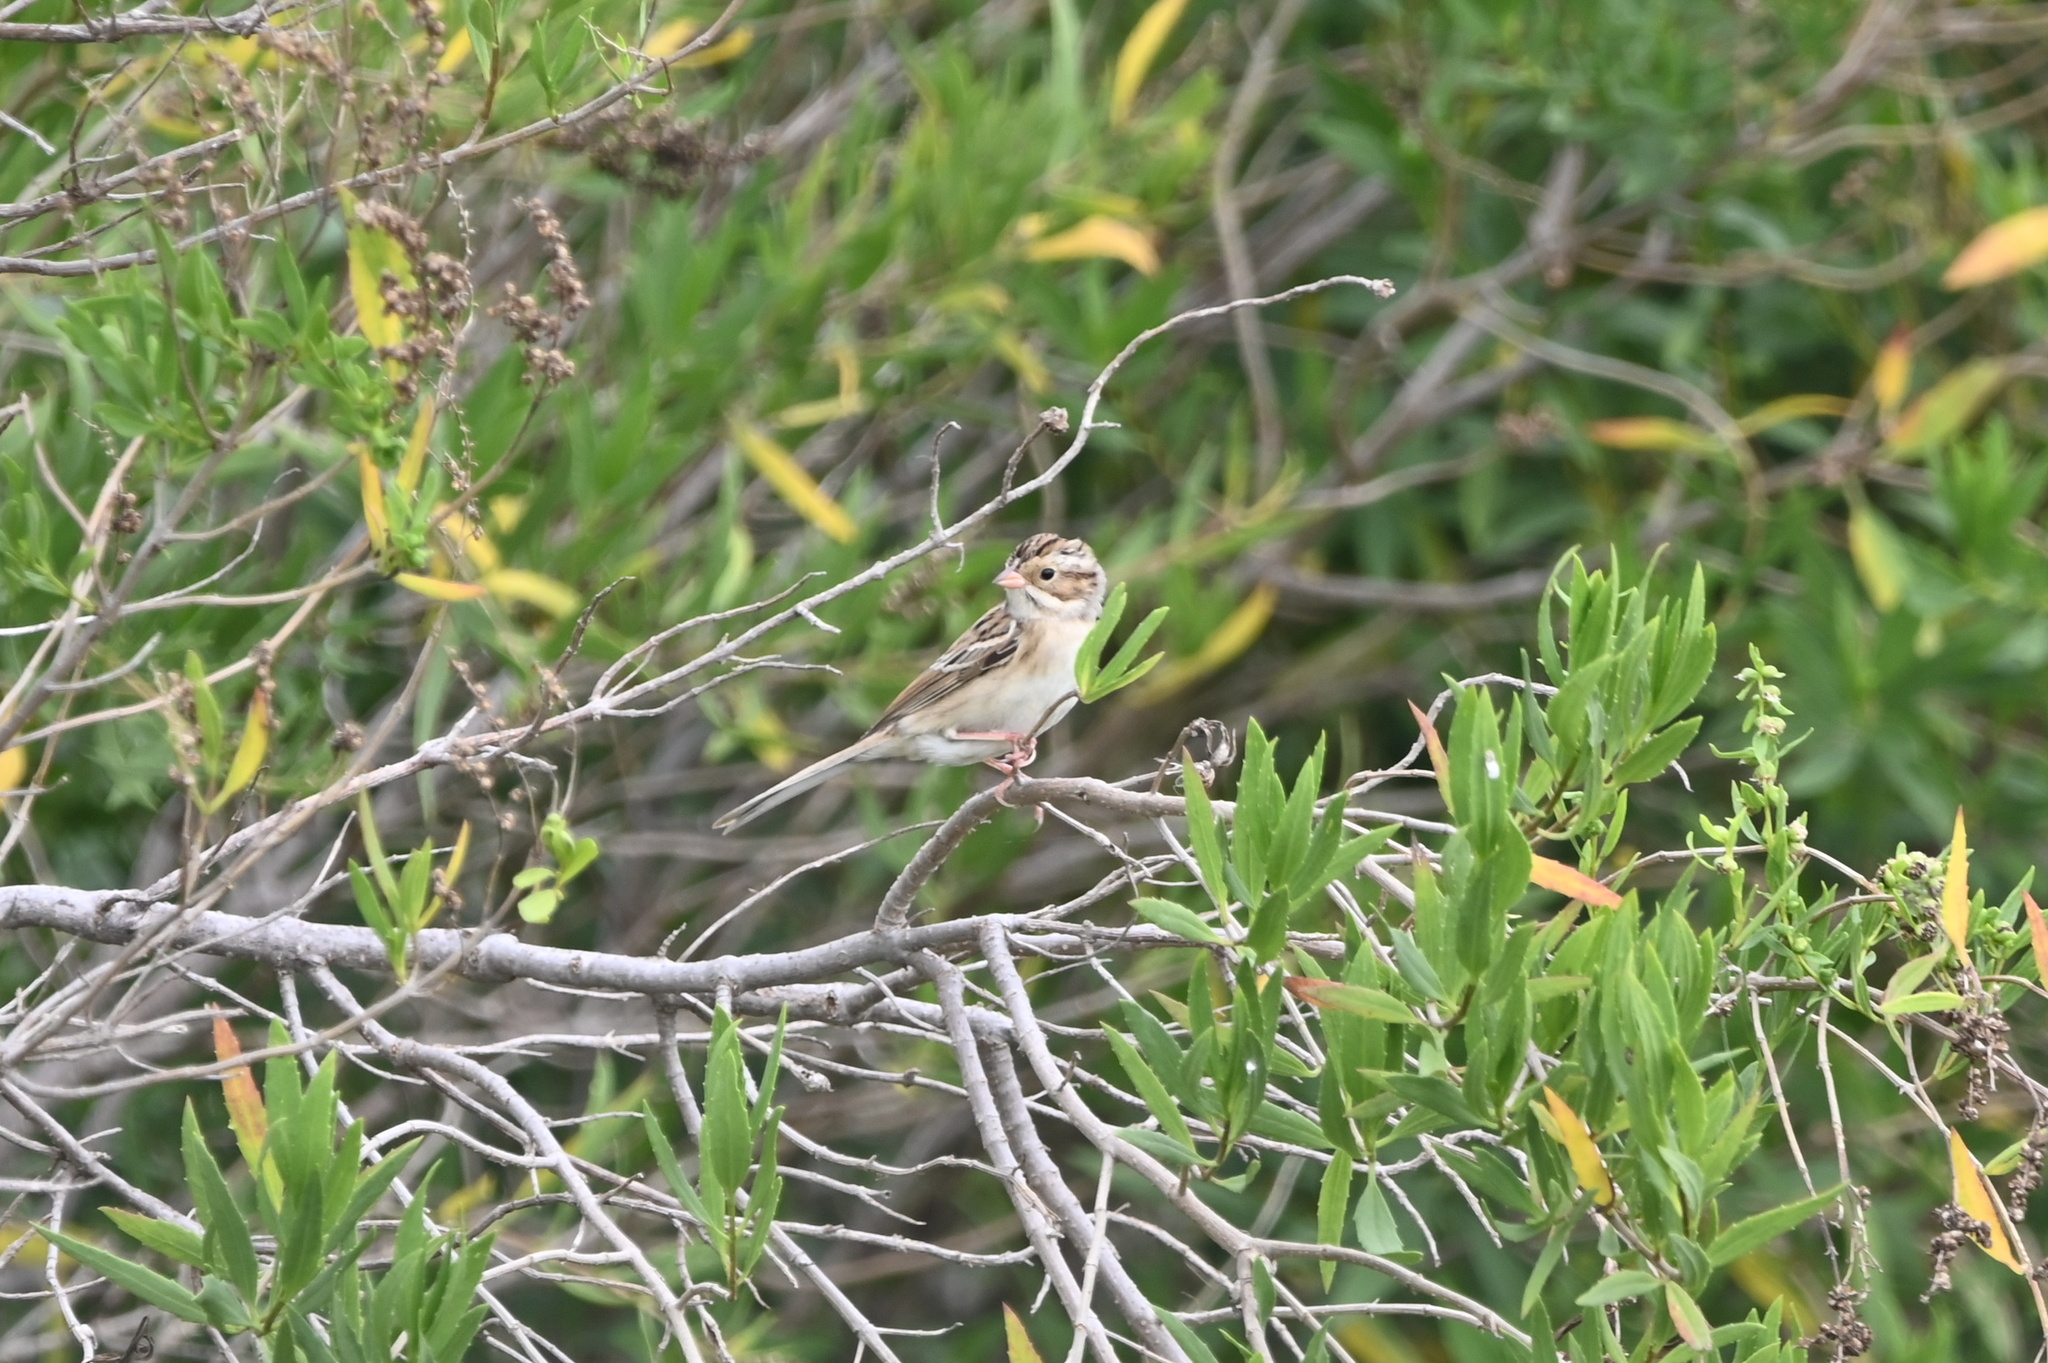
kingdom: Animalia
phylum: Chordata
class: Aves
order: Passeriformes
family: Passerellidae
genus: Spizella
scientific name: Spizella pallida
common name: Clay-colored sparrow
